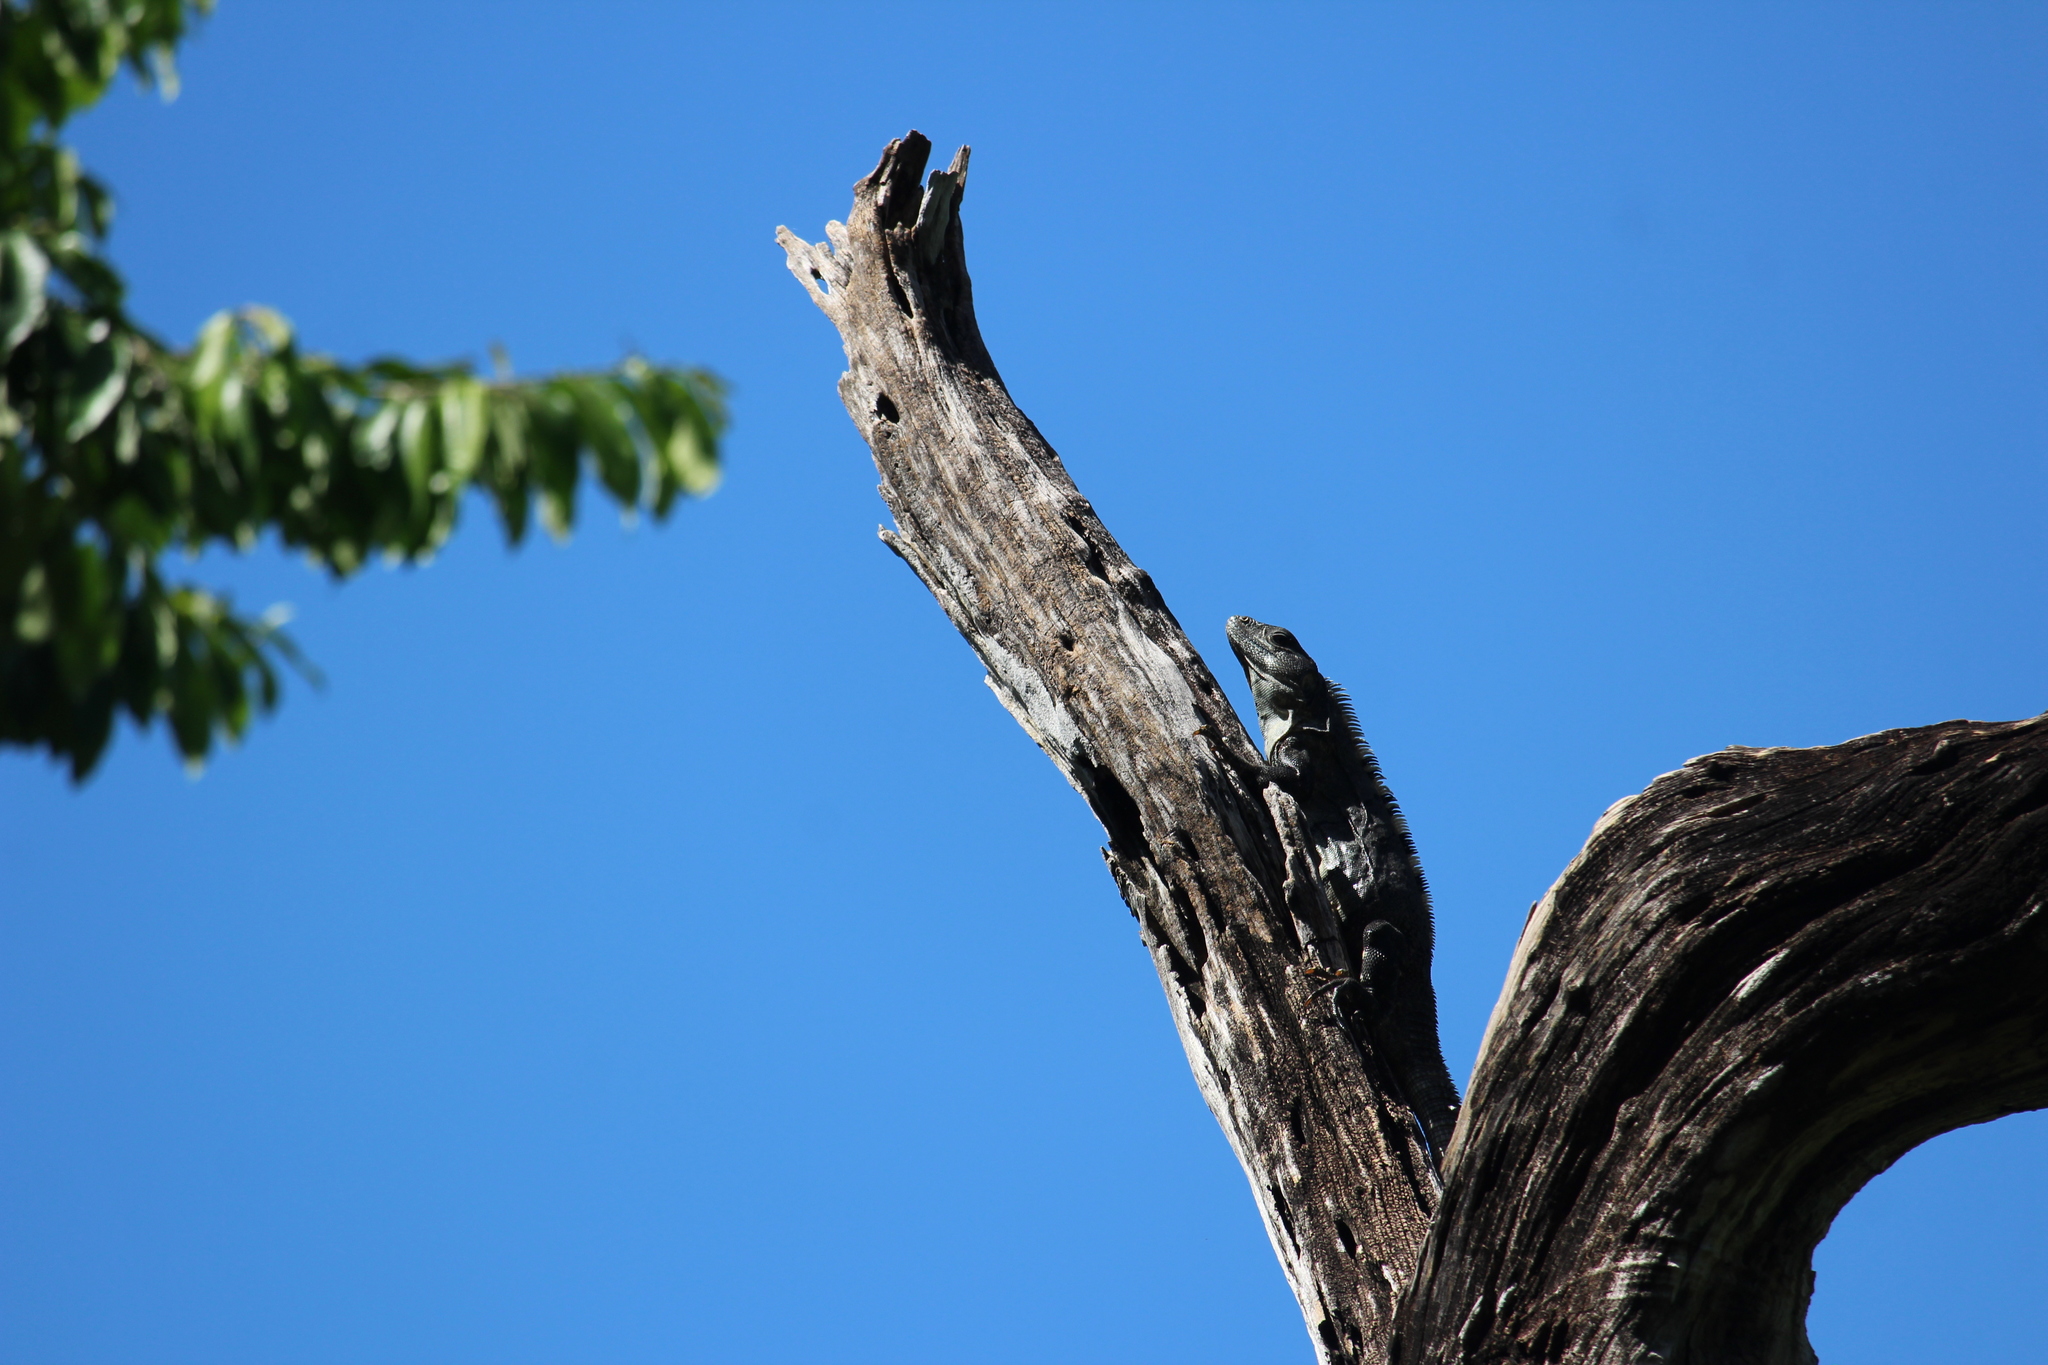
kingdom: Animalia
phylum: Chordata
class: Squamata
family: Iguanidae
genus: Ctenosaura
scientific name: Ctenosaura similis
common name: Black spiny-tailed iguana
